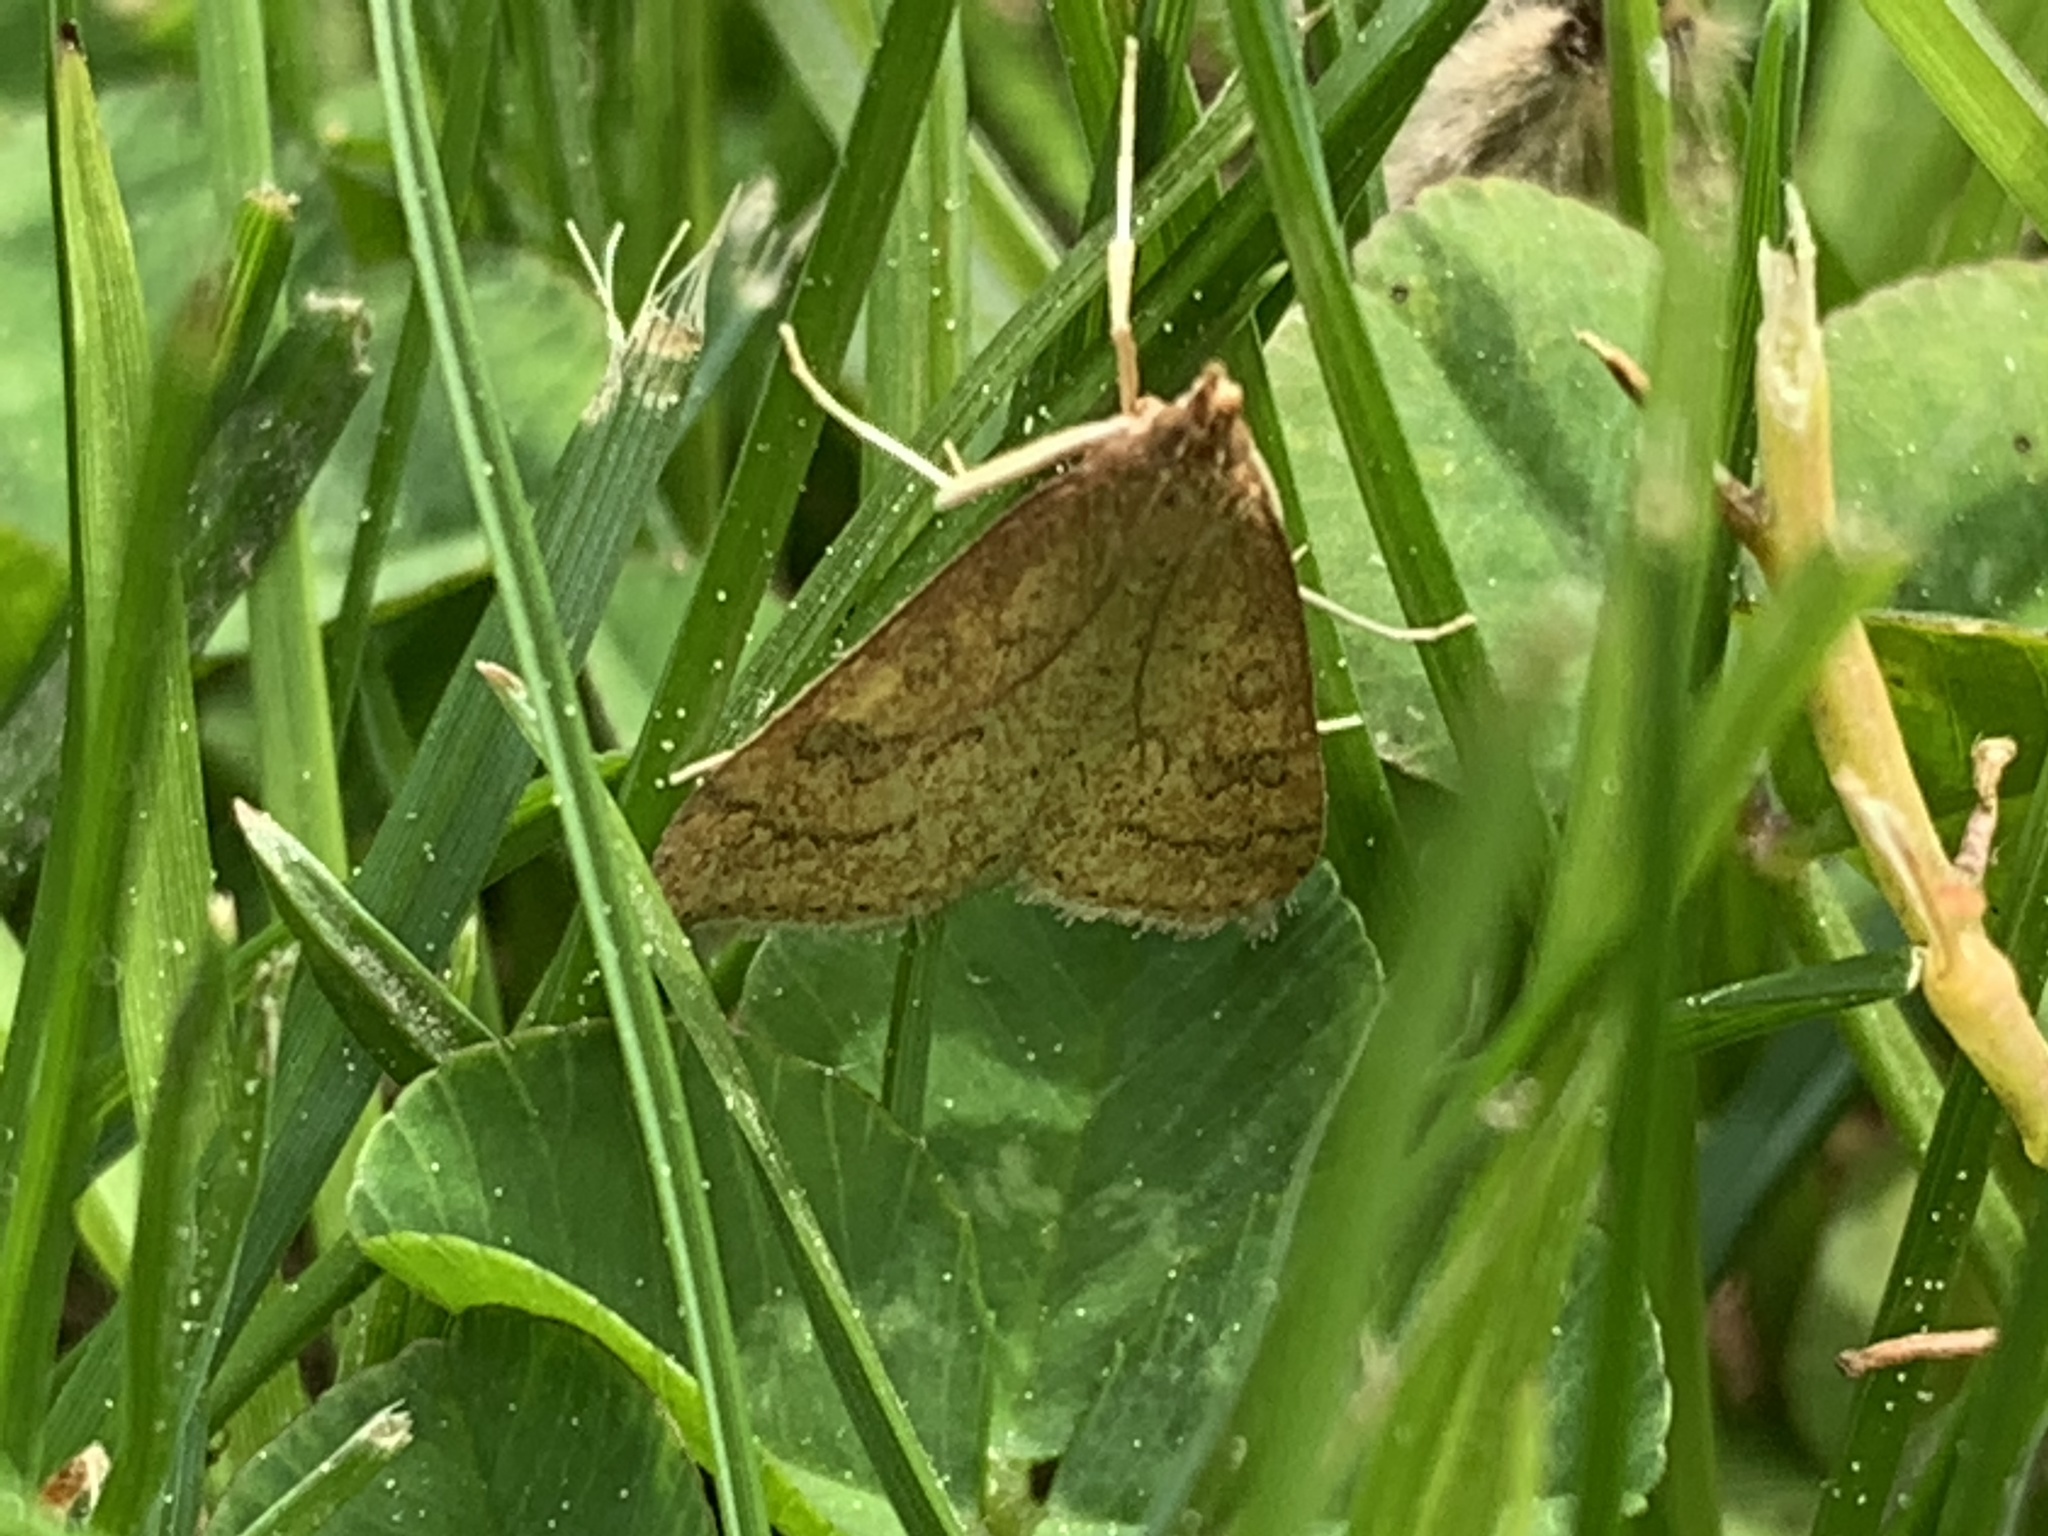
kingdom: Animalia
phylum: Arthropoda
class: Insecta
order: Lepidoptera
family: Crambidae
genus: Udea
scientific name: Udea rubigalis
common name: Celery leaftier moth
